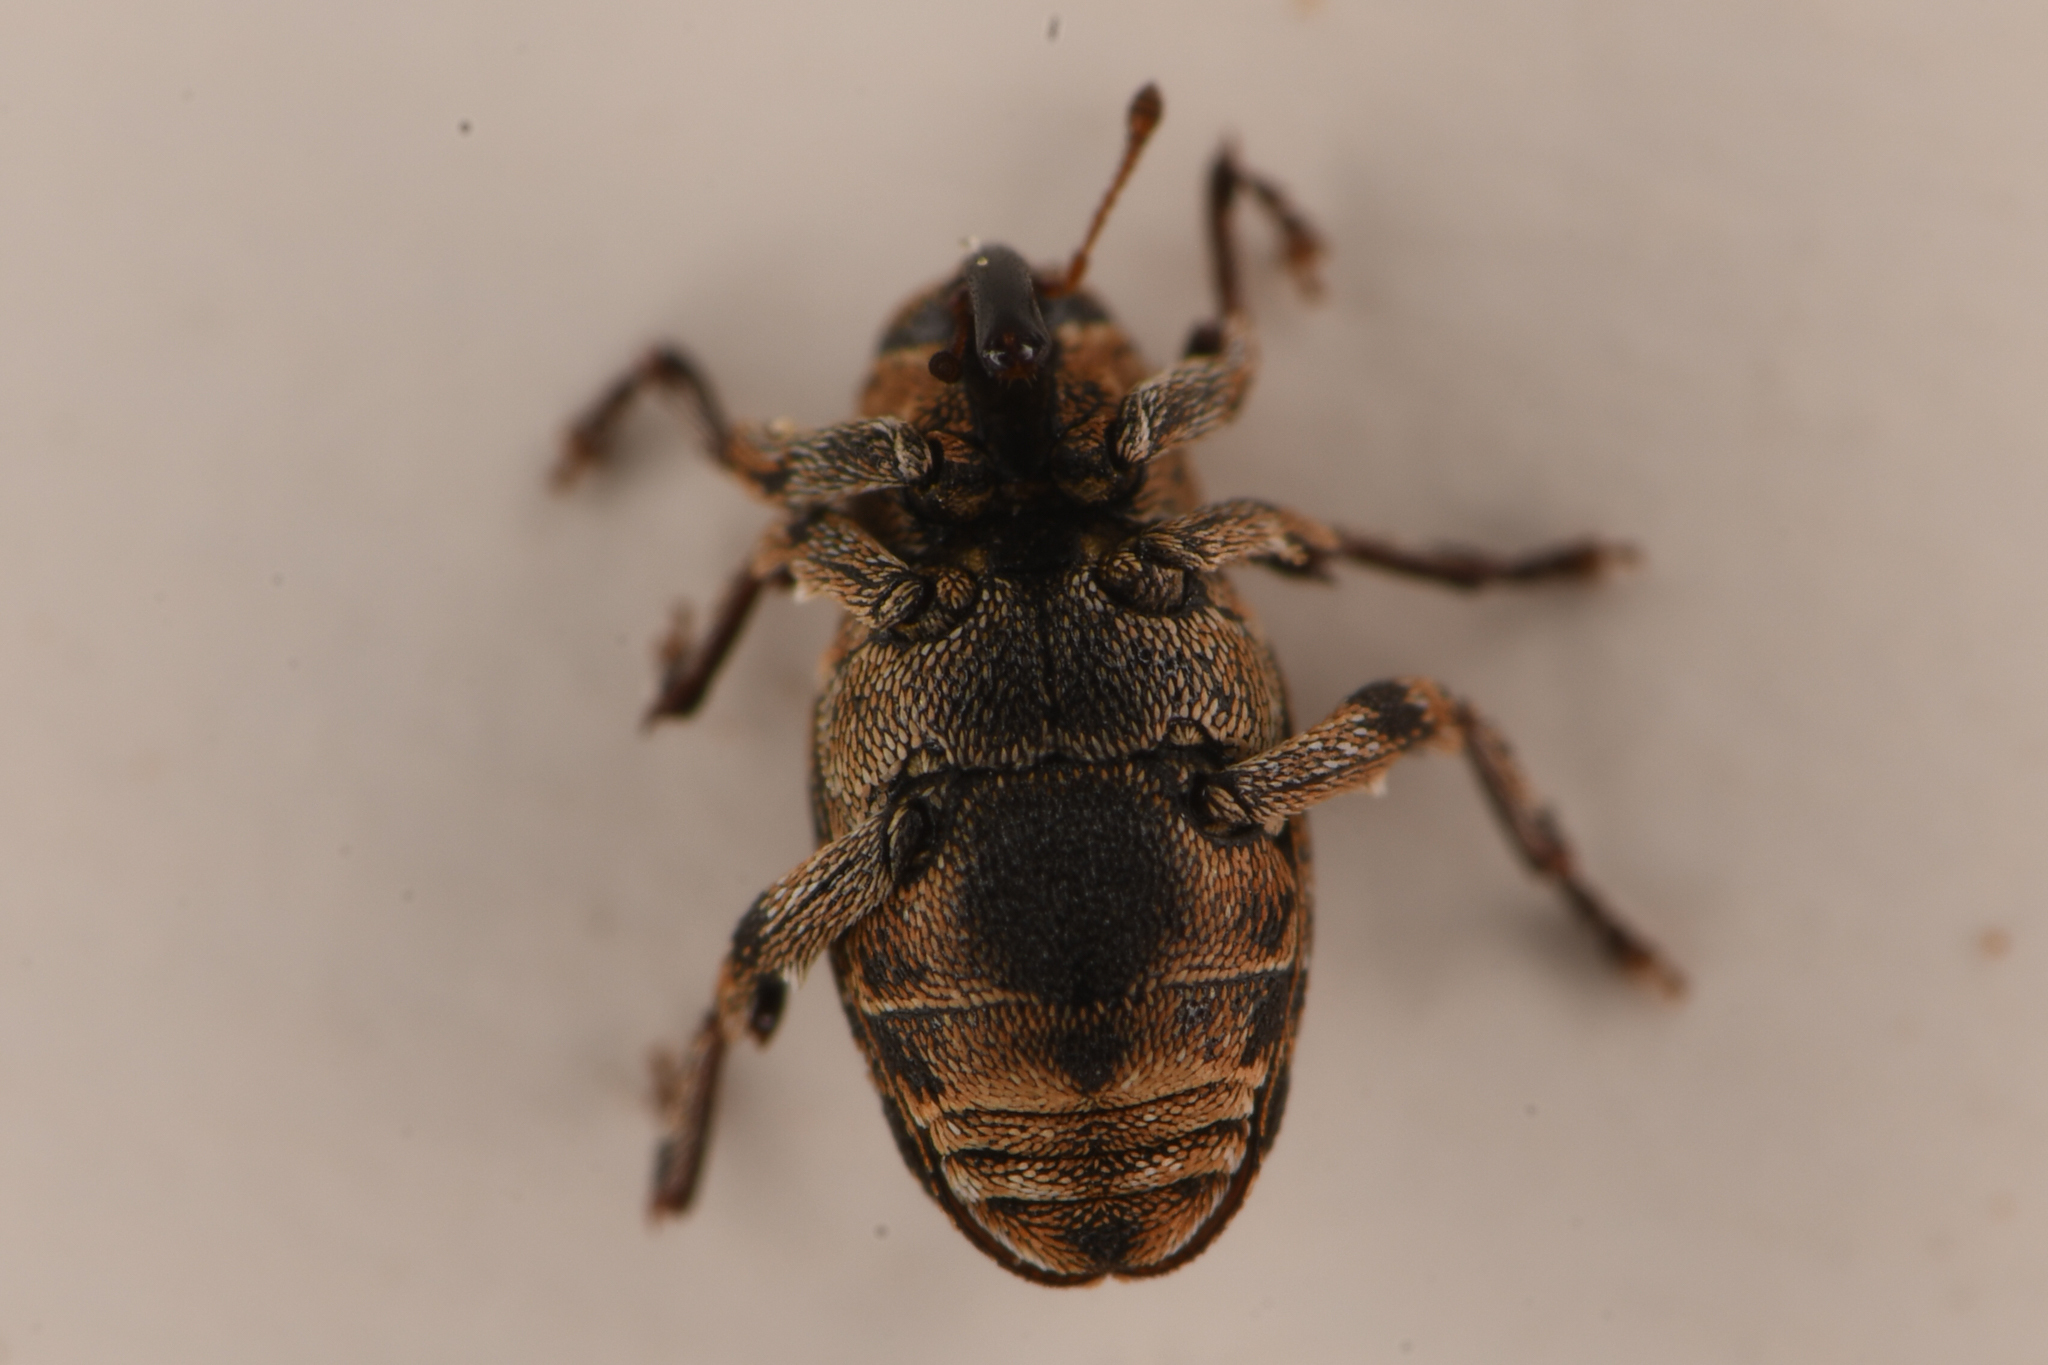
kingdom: Animalia
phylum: Arthropoda
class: Insecta
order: Coleoptera
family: Curculionidae
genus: Bagous
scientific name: Bagous californicus
